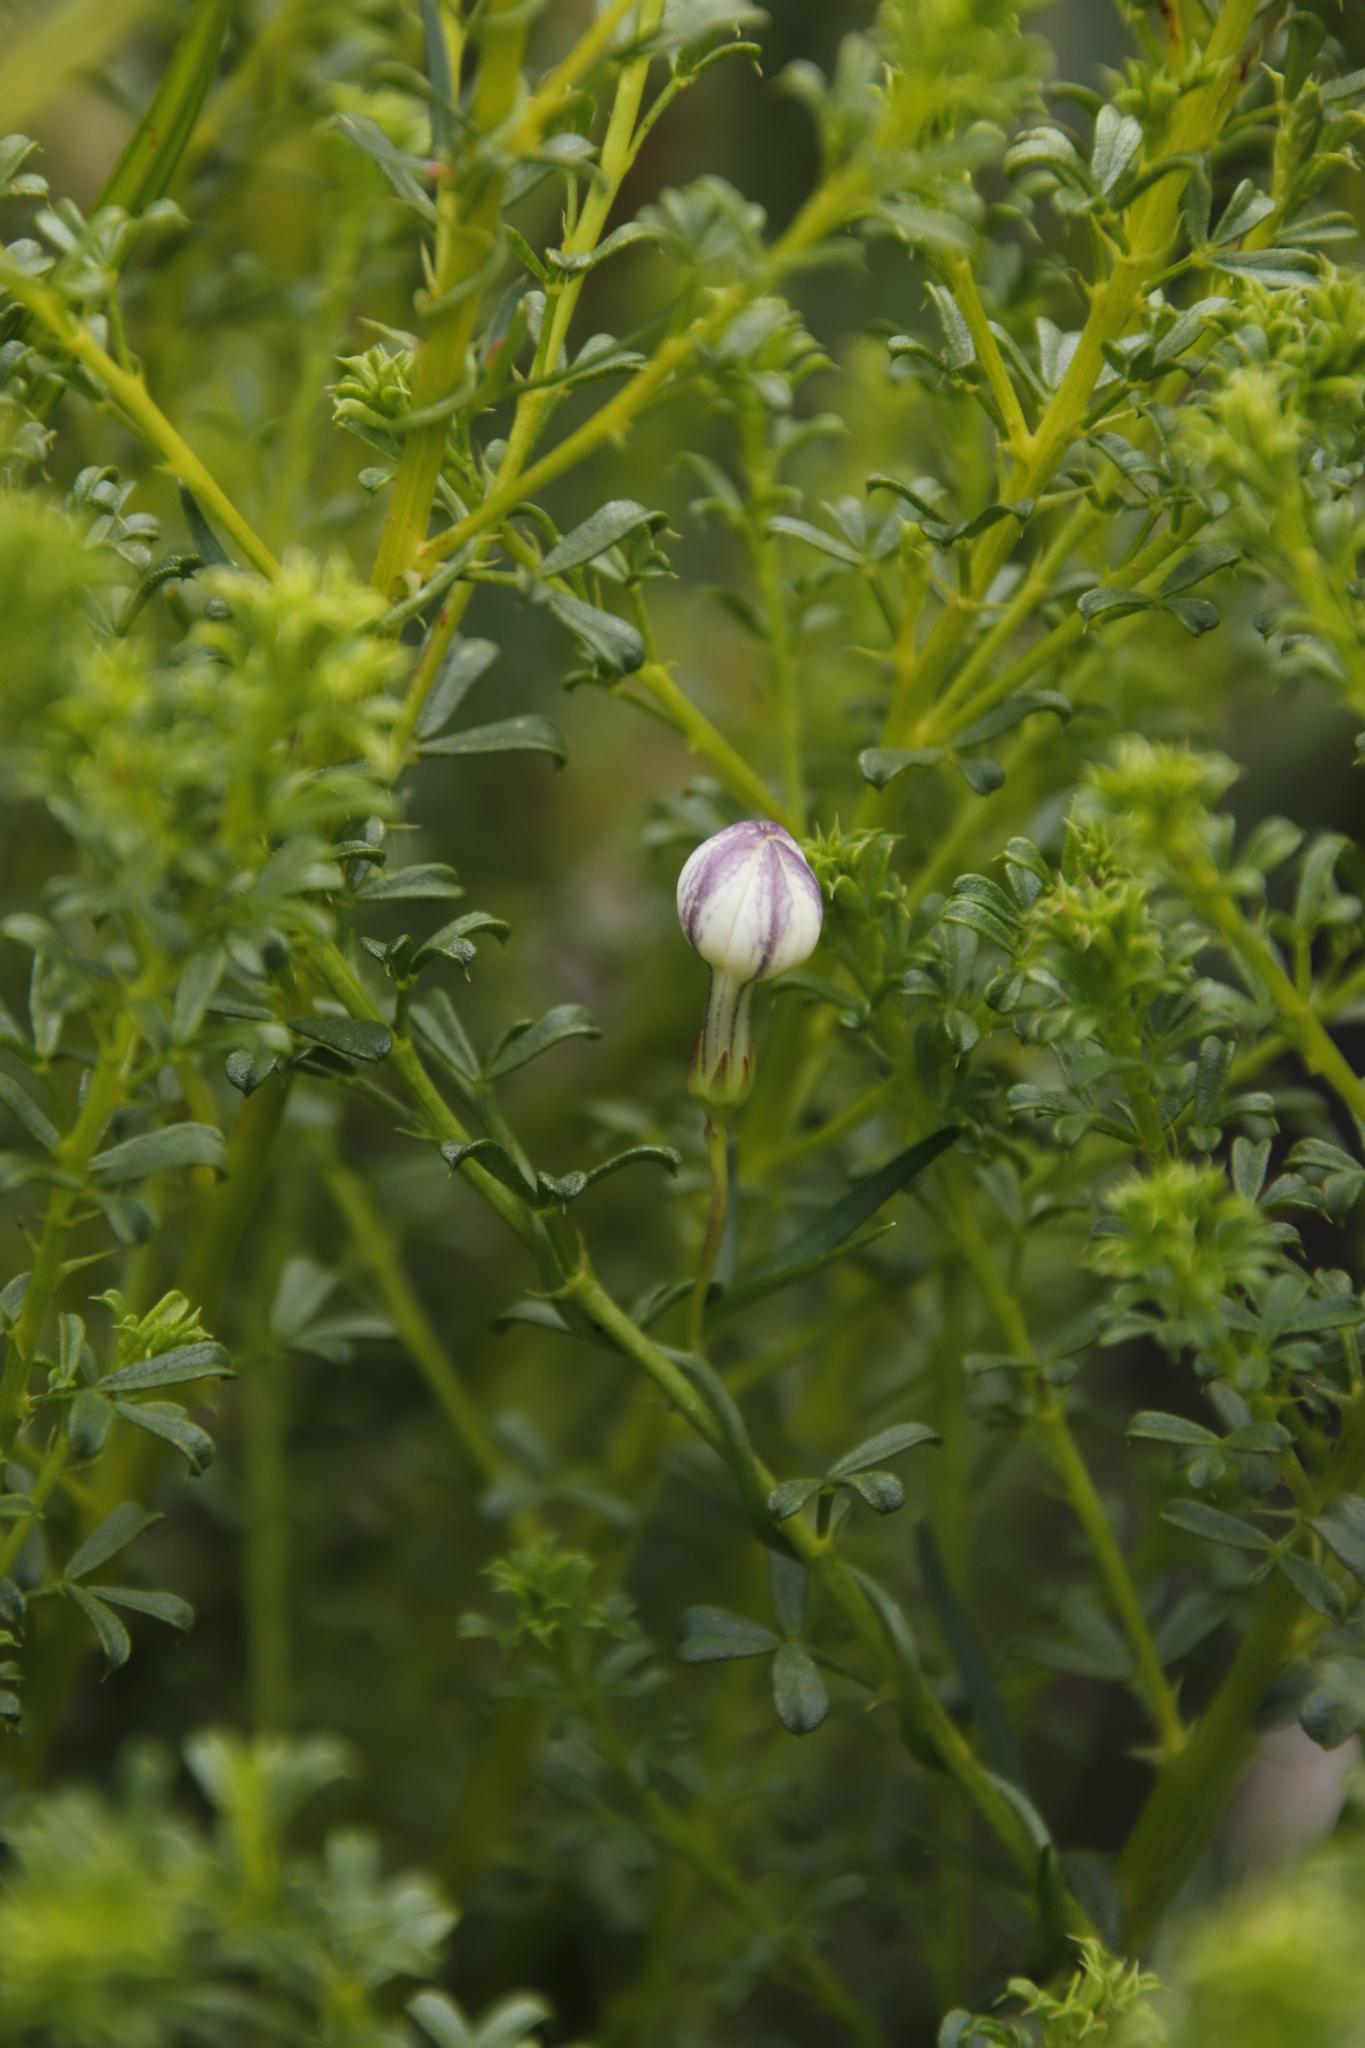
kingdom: Plantae
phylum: Tracheophyta
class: Magnoliopsida
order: Asterales
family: Campanulaceae
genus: Cyphia
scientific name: Cyphia volubilis
